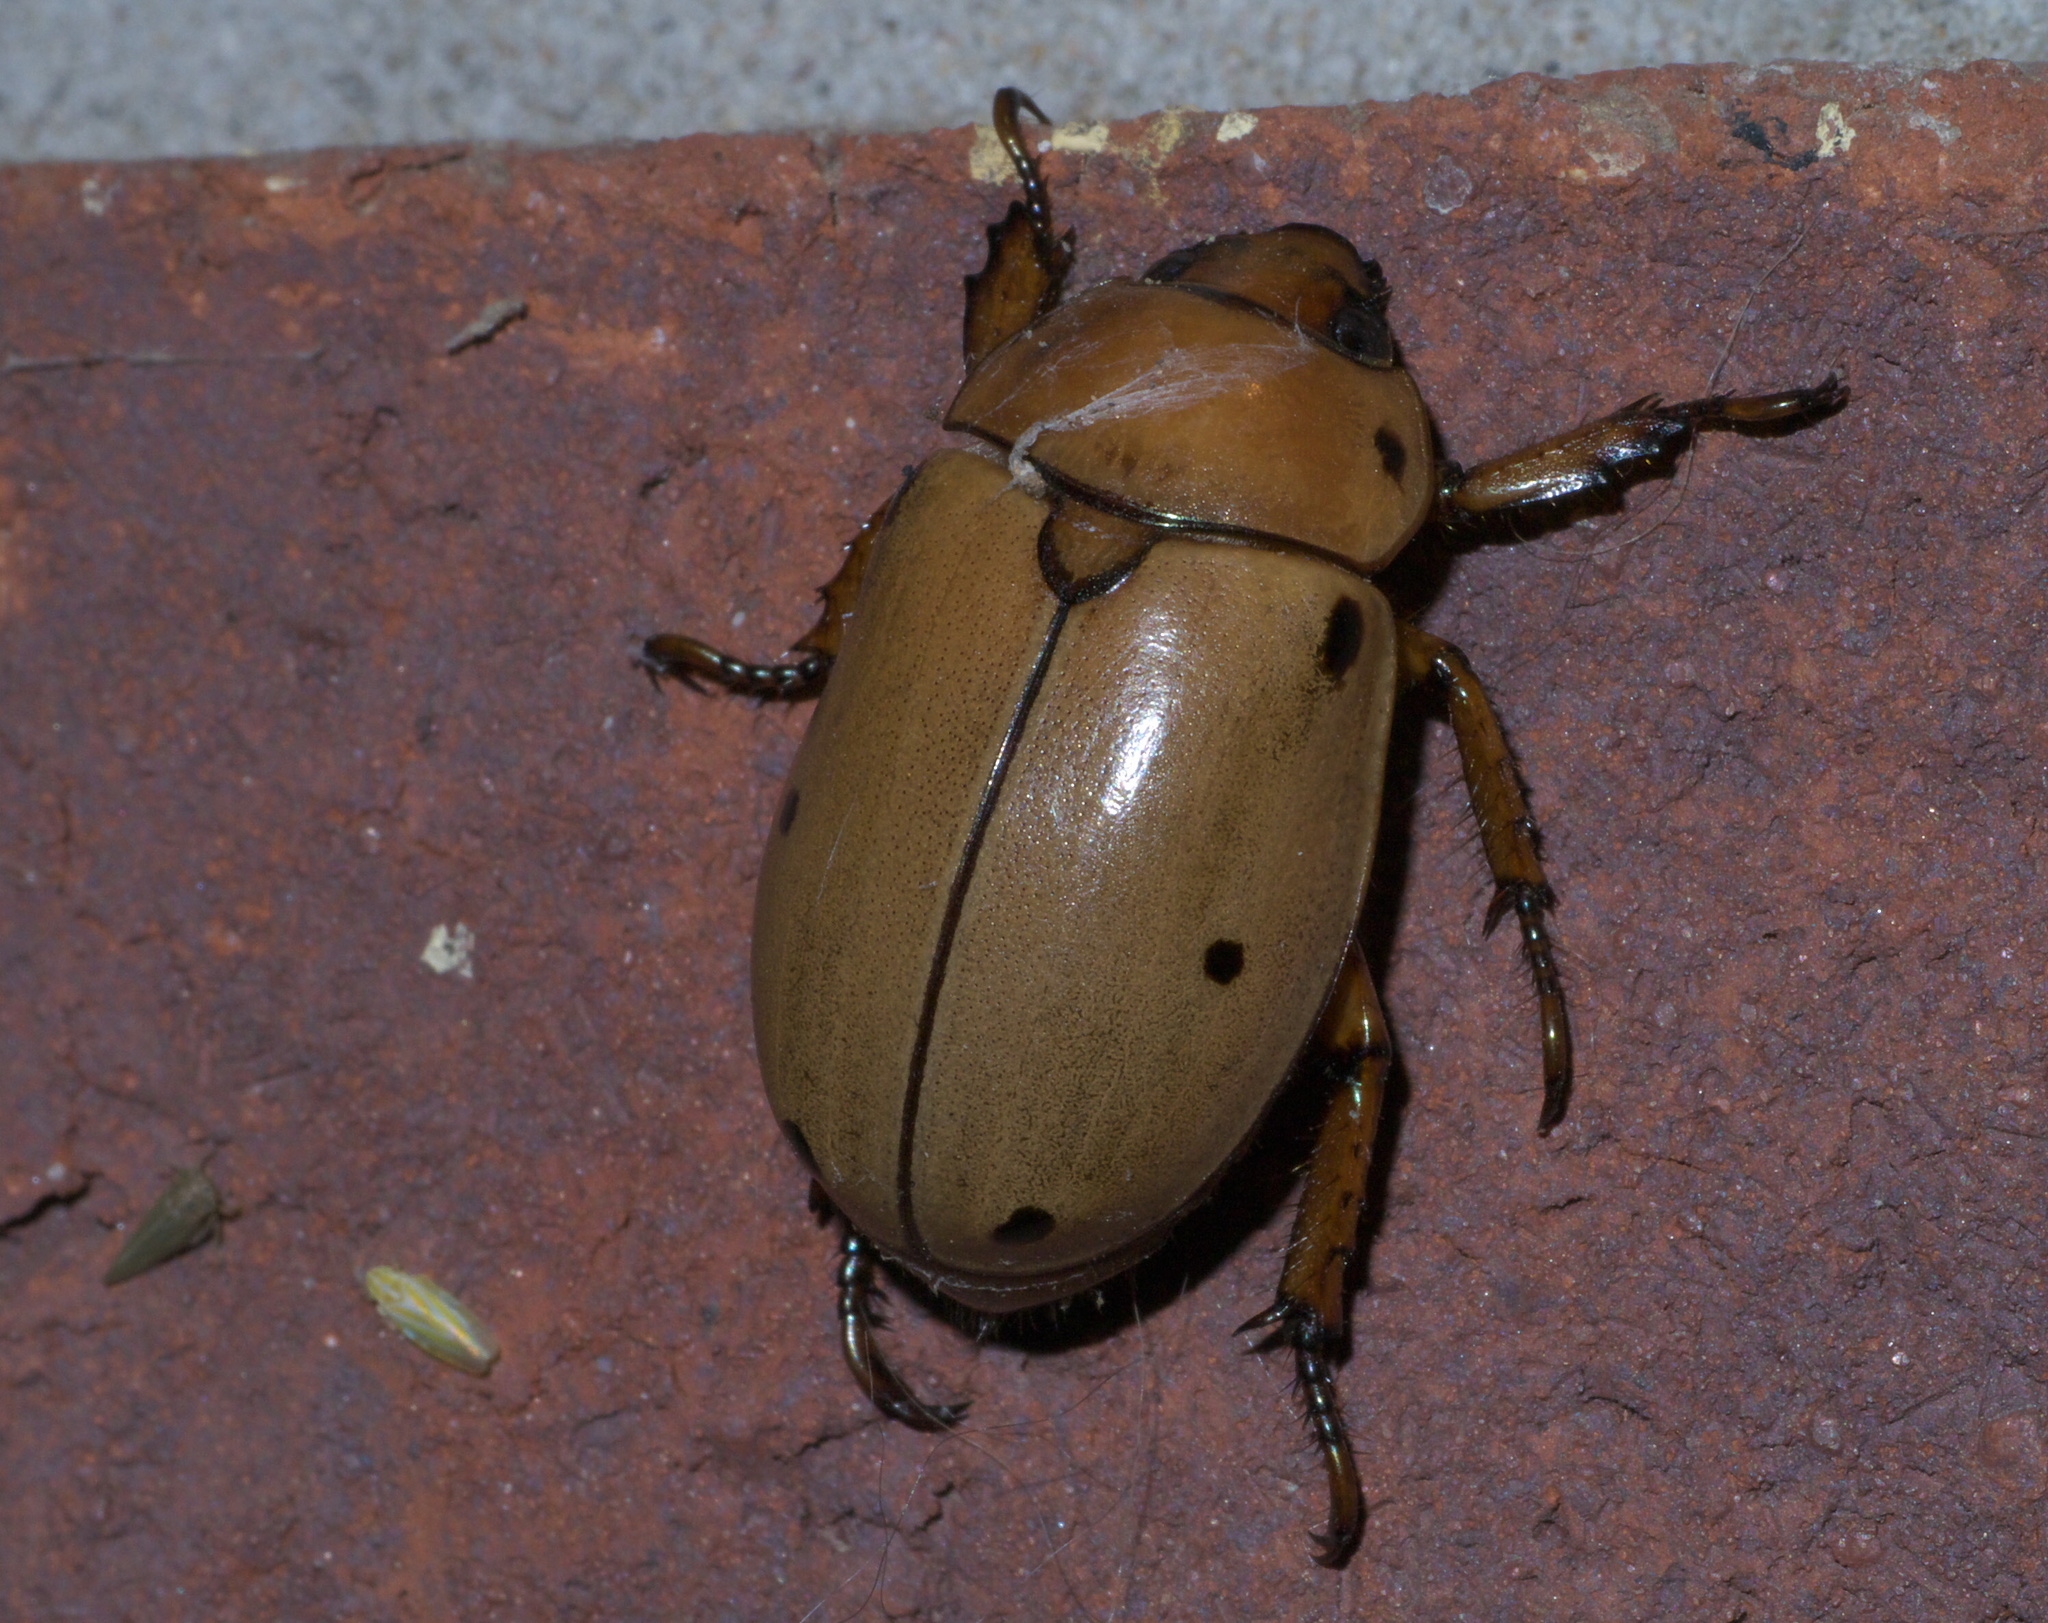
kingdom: Animalia
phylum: Arthropoda
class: Insecta
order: Coleoptera
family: Scarabaeidae
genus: Pelidnota
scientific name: Pelidnota punctata
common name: Grapevine beetle
